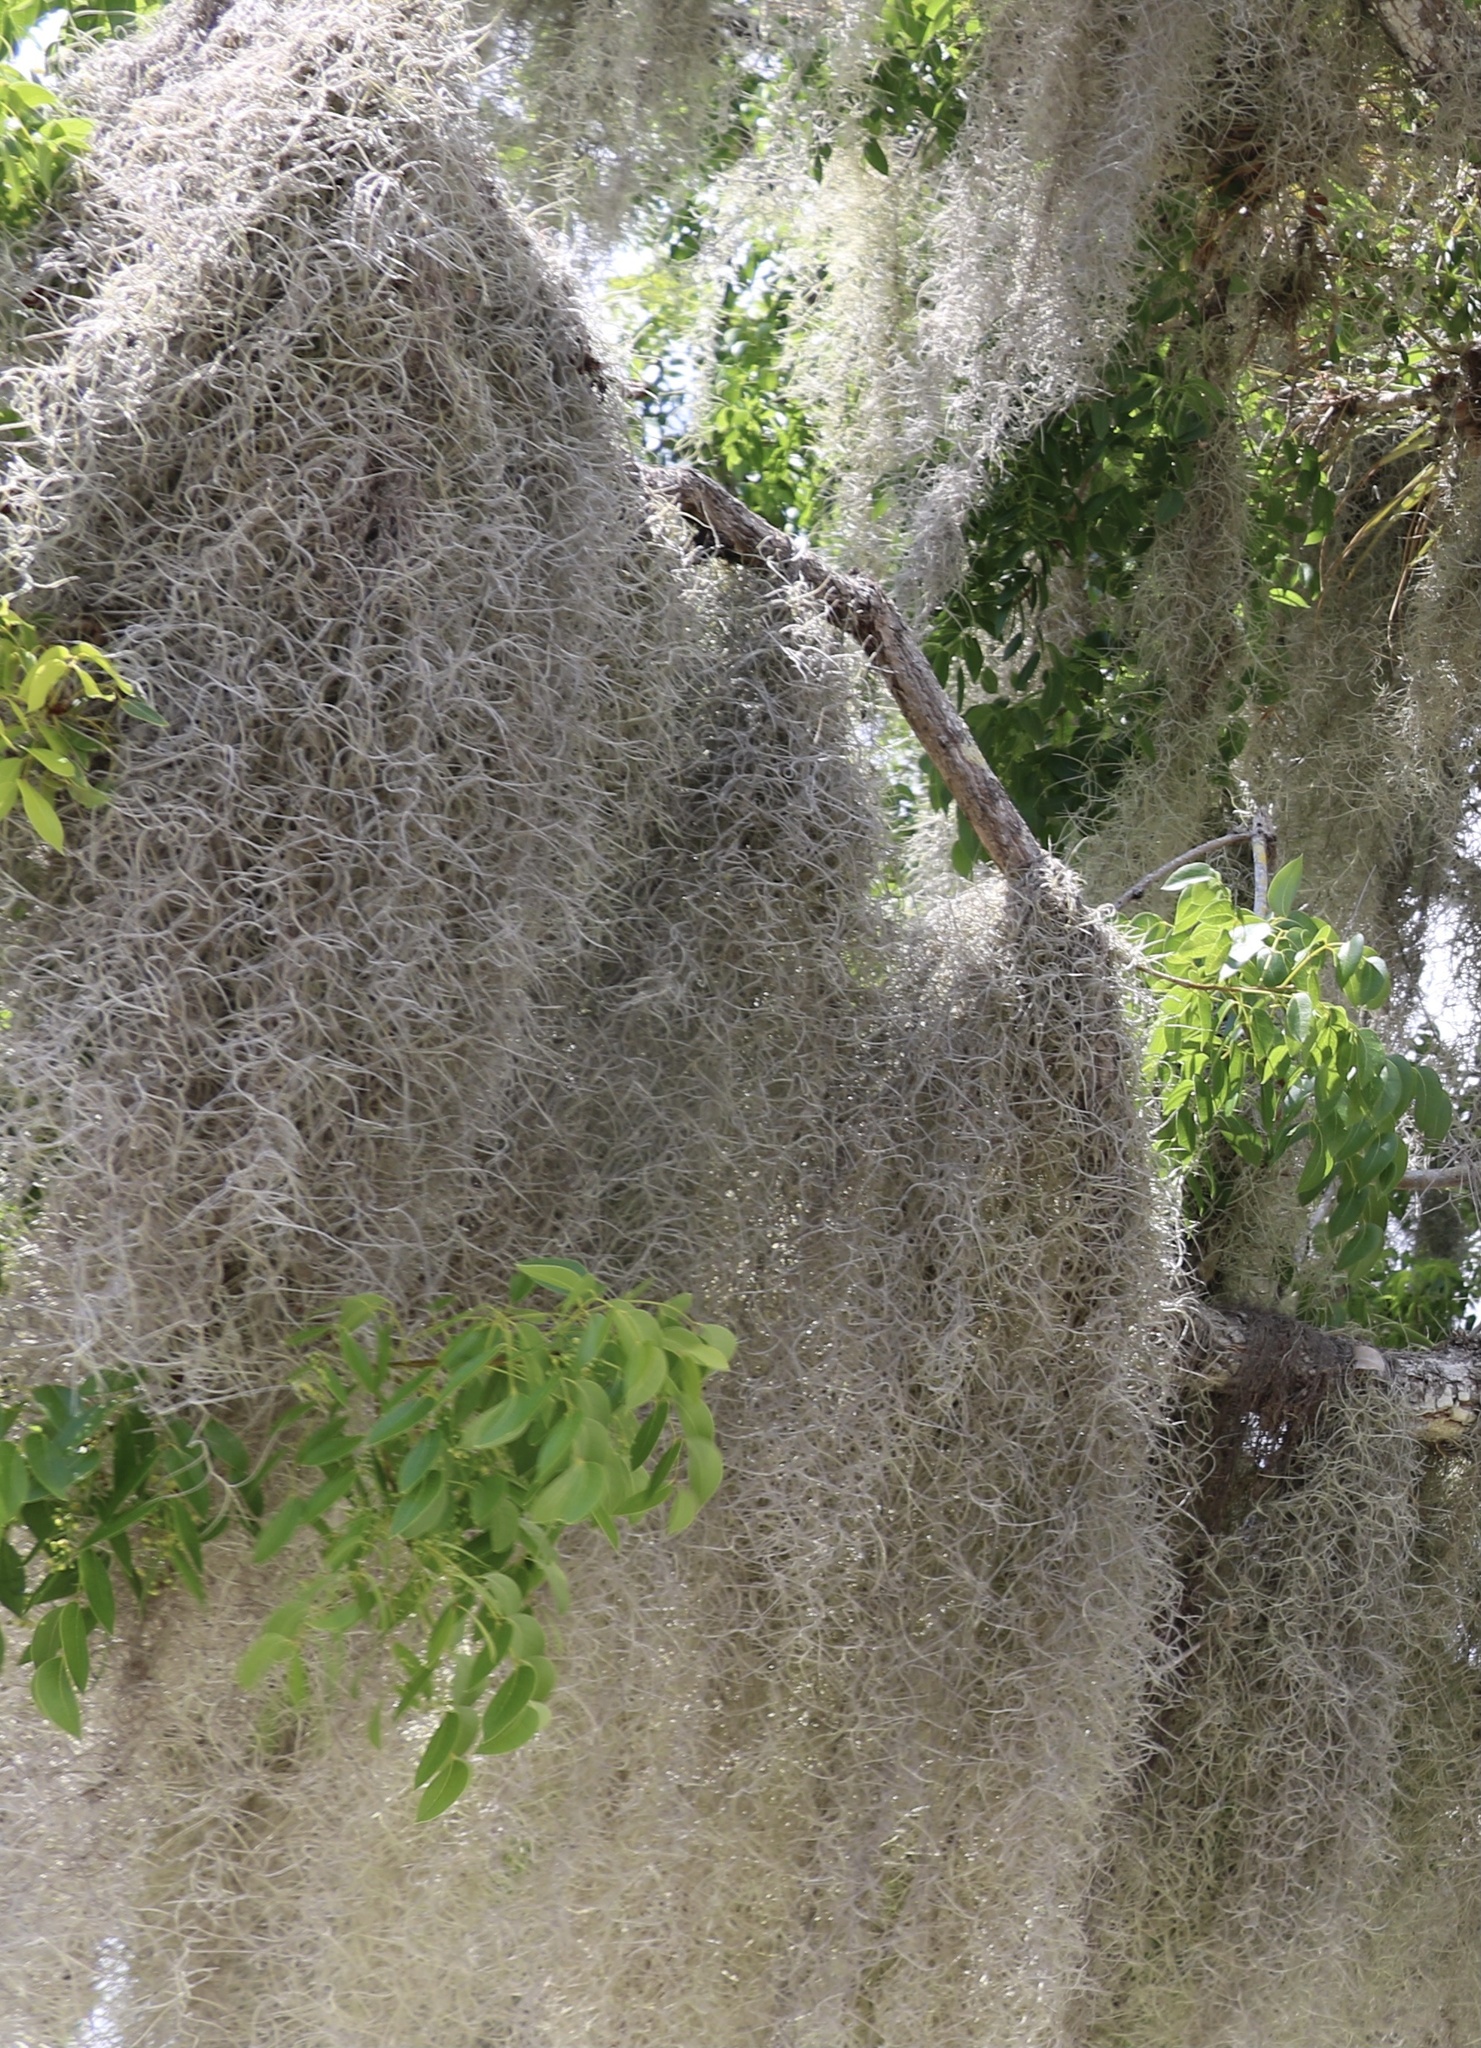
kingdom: Plantae
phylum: Tracheophyta
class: Liliopsida
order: Poales
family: Bromeliaceae
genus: Tillandsia
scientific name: Tillandsia usneoides
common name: Spanish moss
